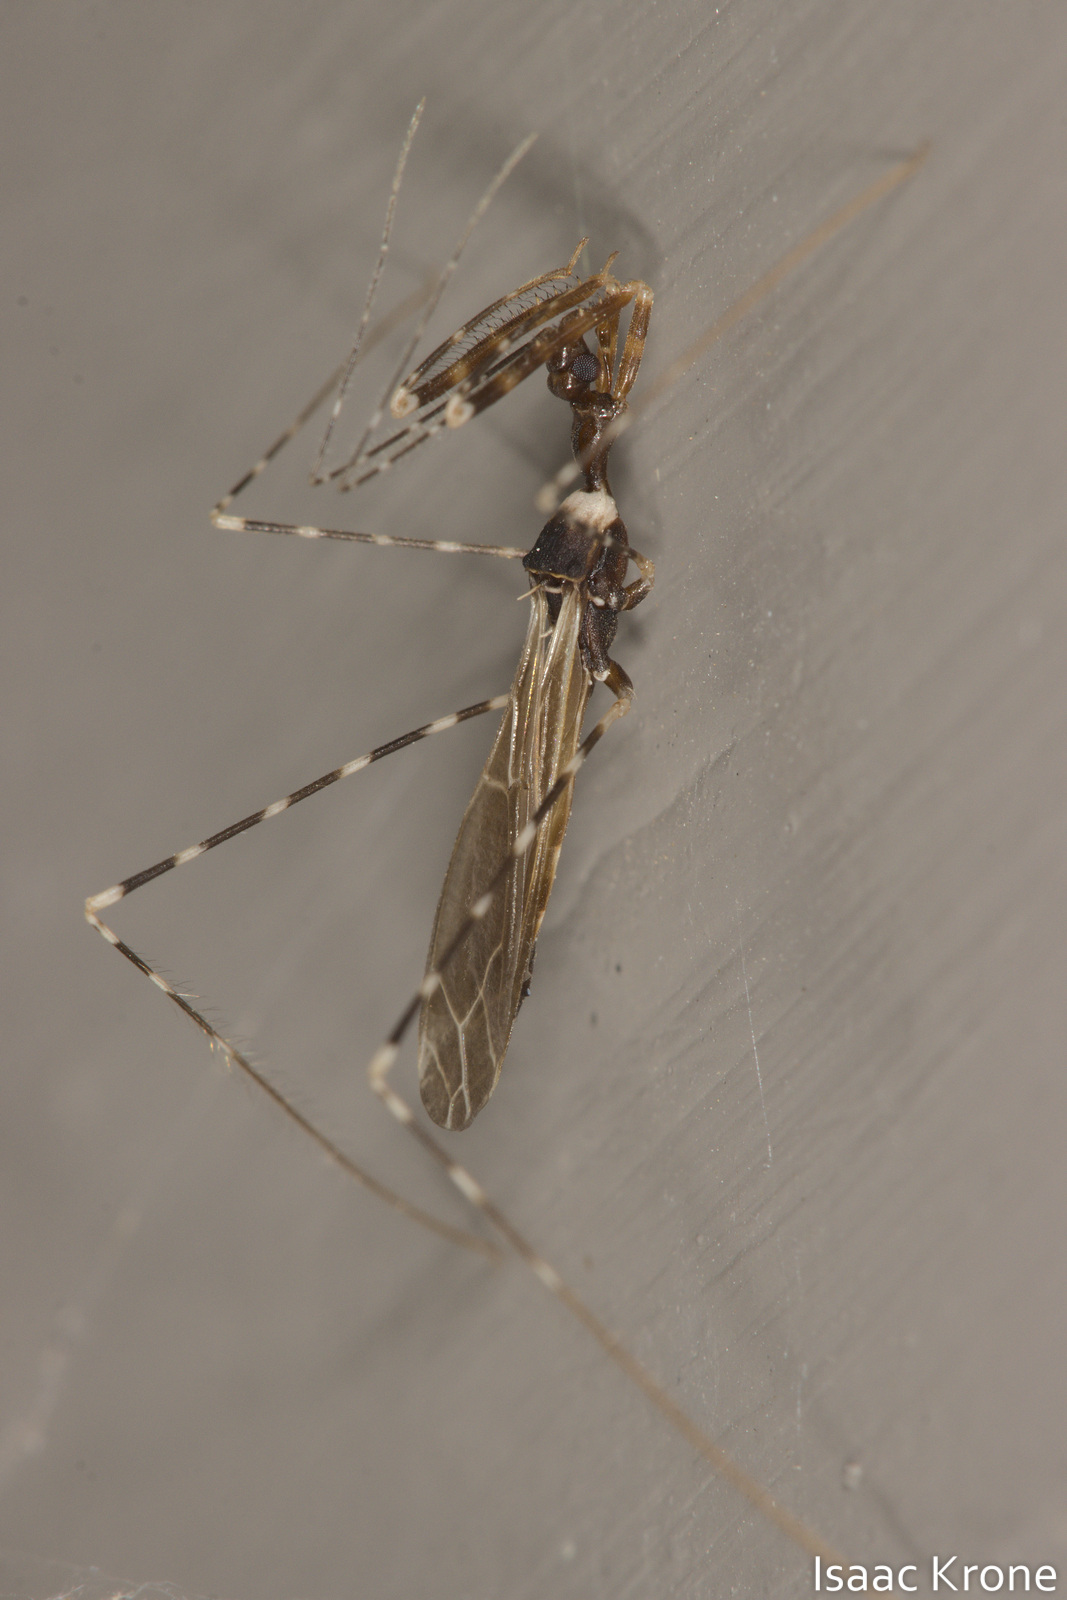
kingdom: Animalia
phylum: Arthropoda
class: Insecta
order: Hemiptera
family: Reduviidae
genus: Stenolemoides
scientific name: Stenolemoides arizonensis
